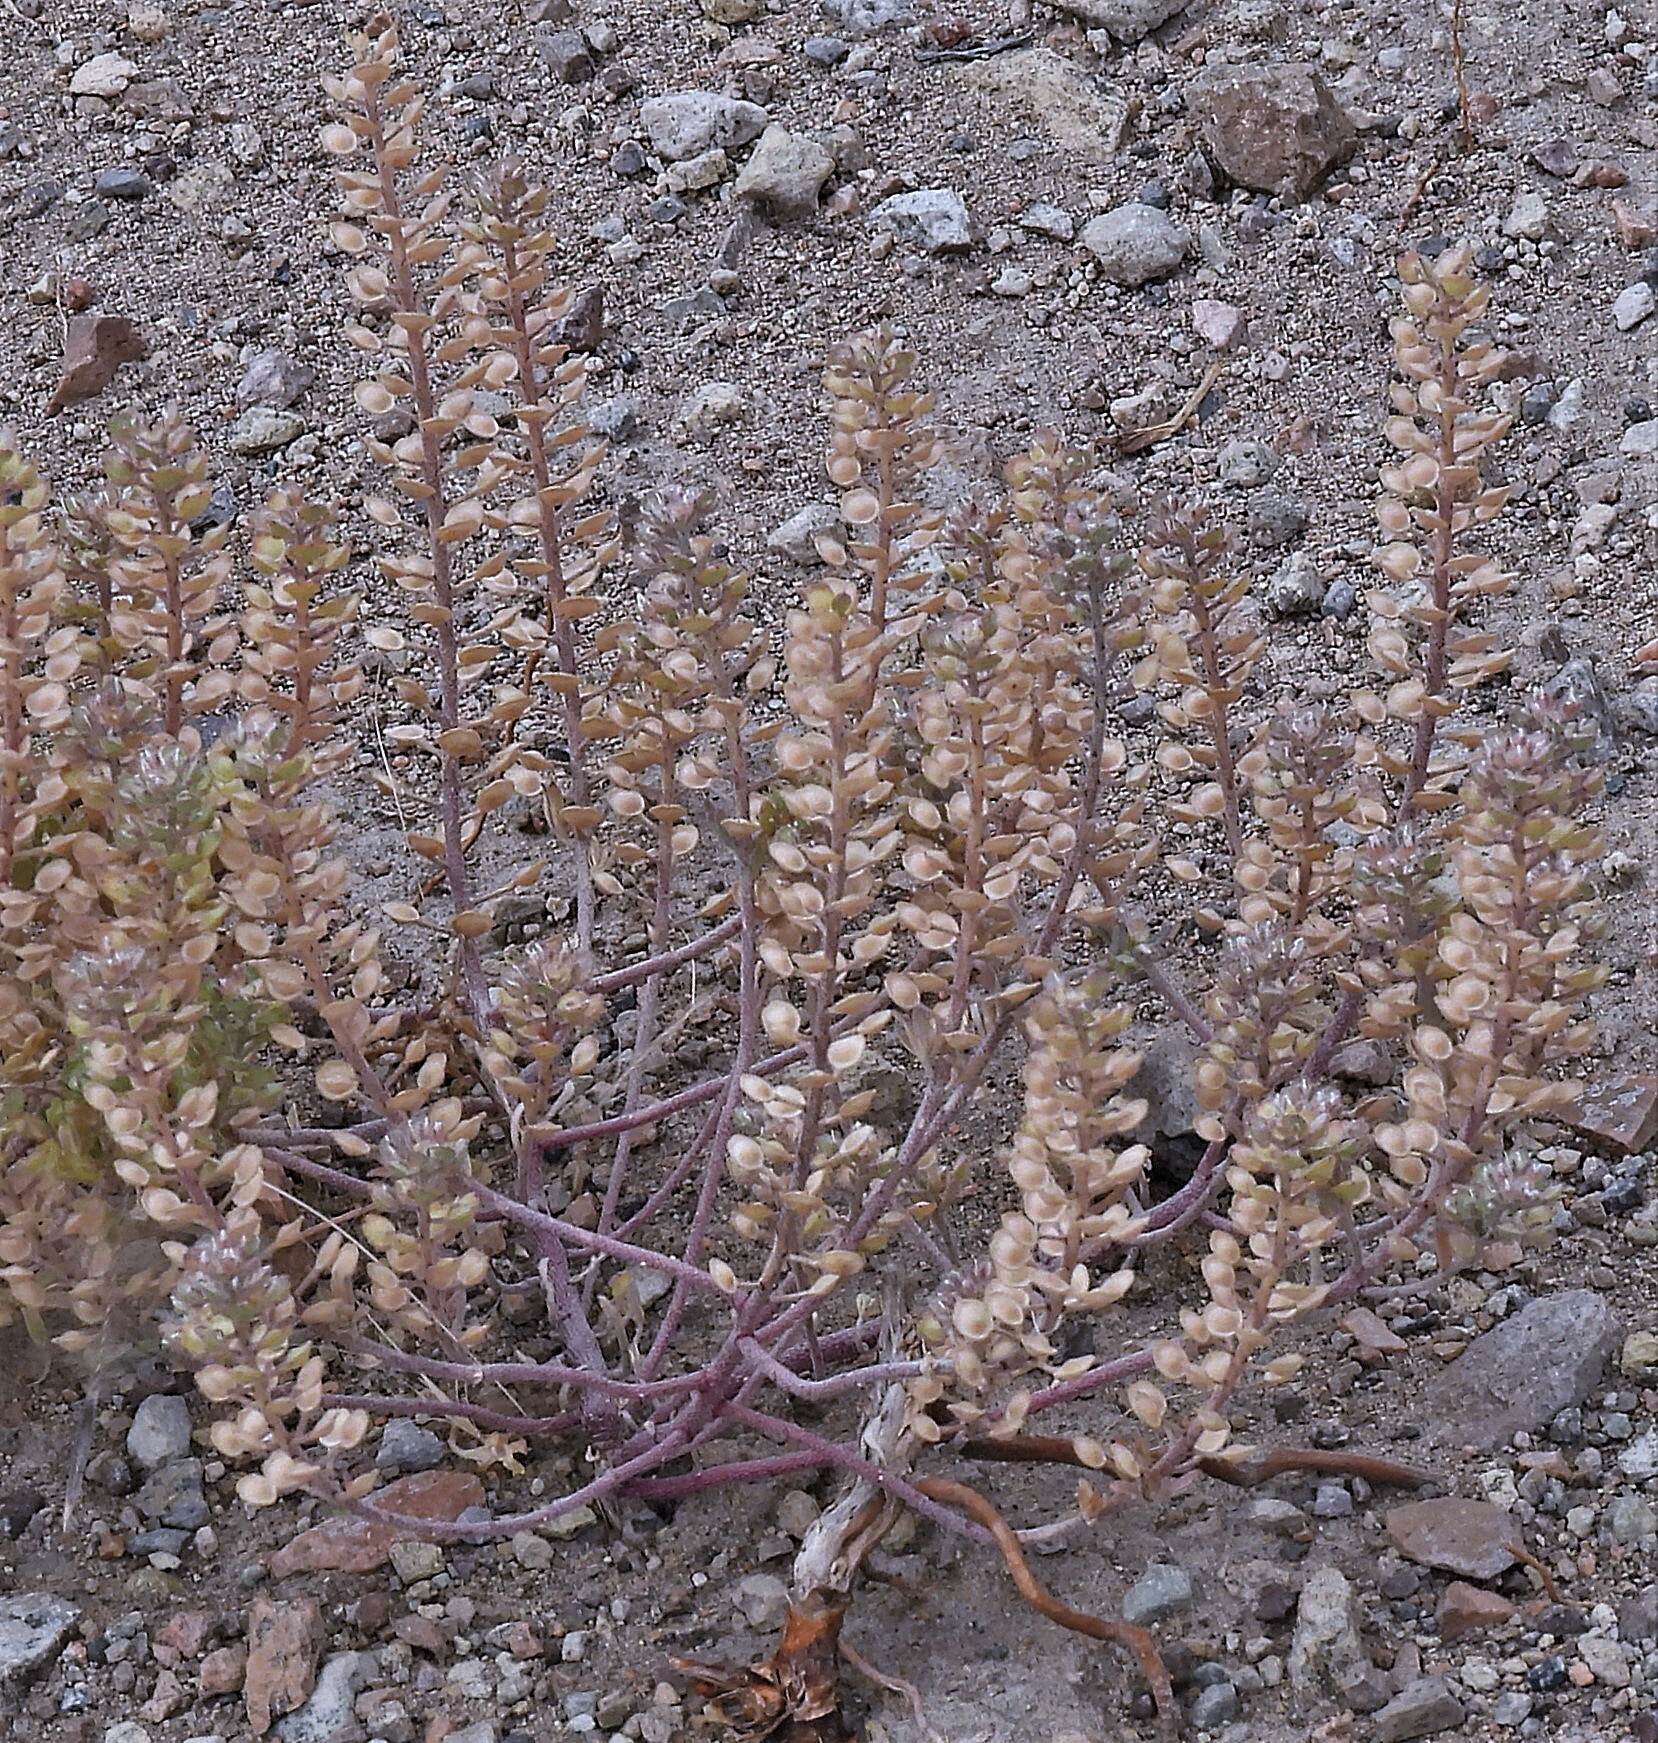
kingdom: Plantae
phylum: Tracheophyta
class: Magnoliopsida
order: Brassicales
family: Brassicaceae
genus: Alyssum
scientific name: Alyssum alyssoides
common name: Small alison
